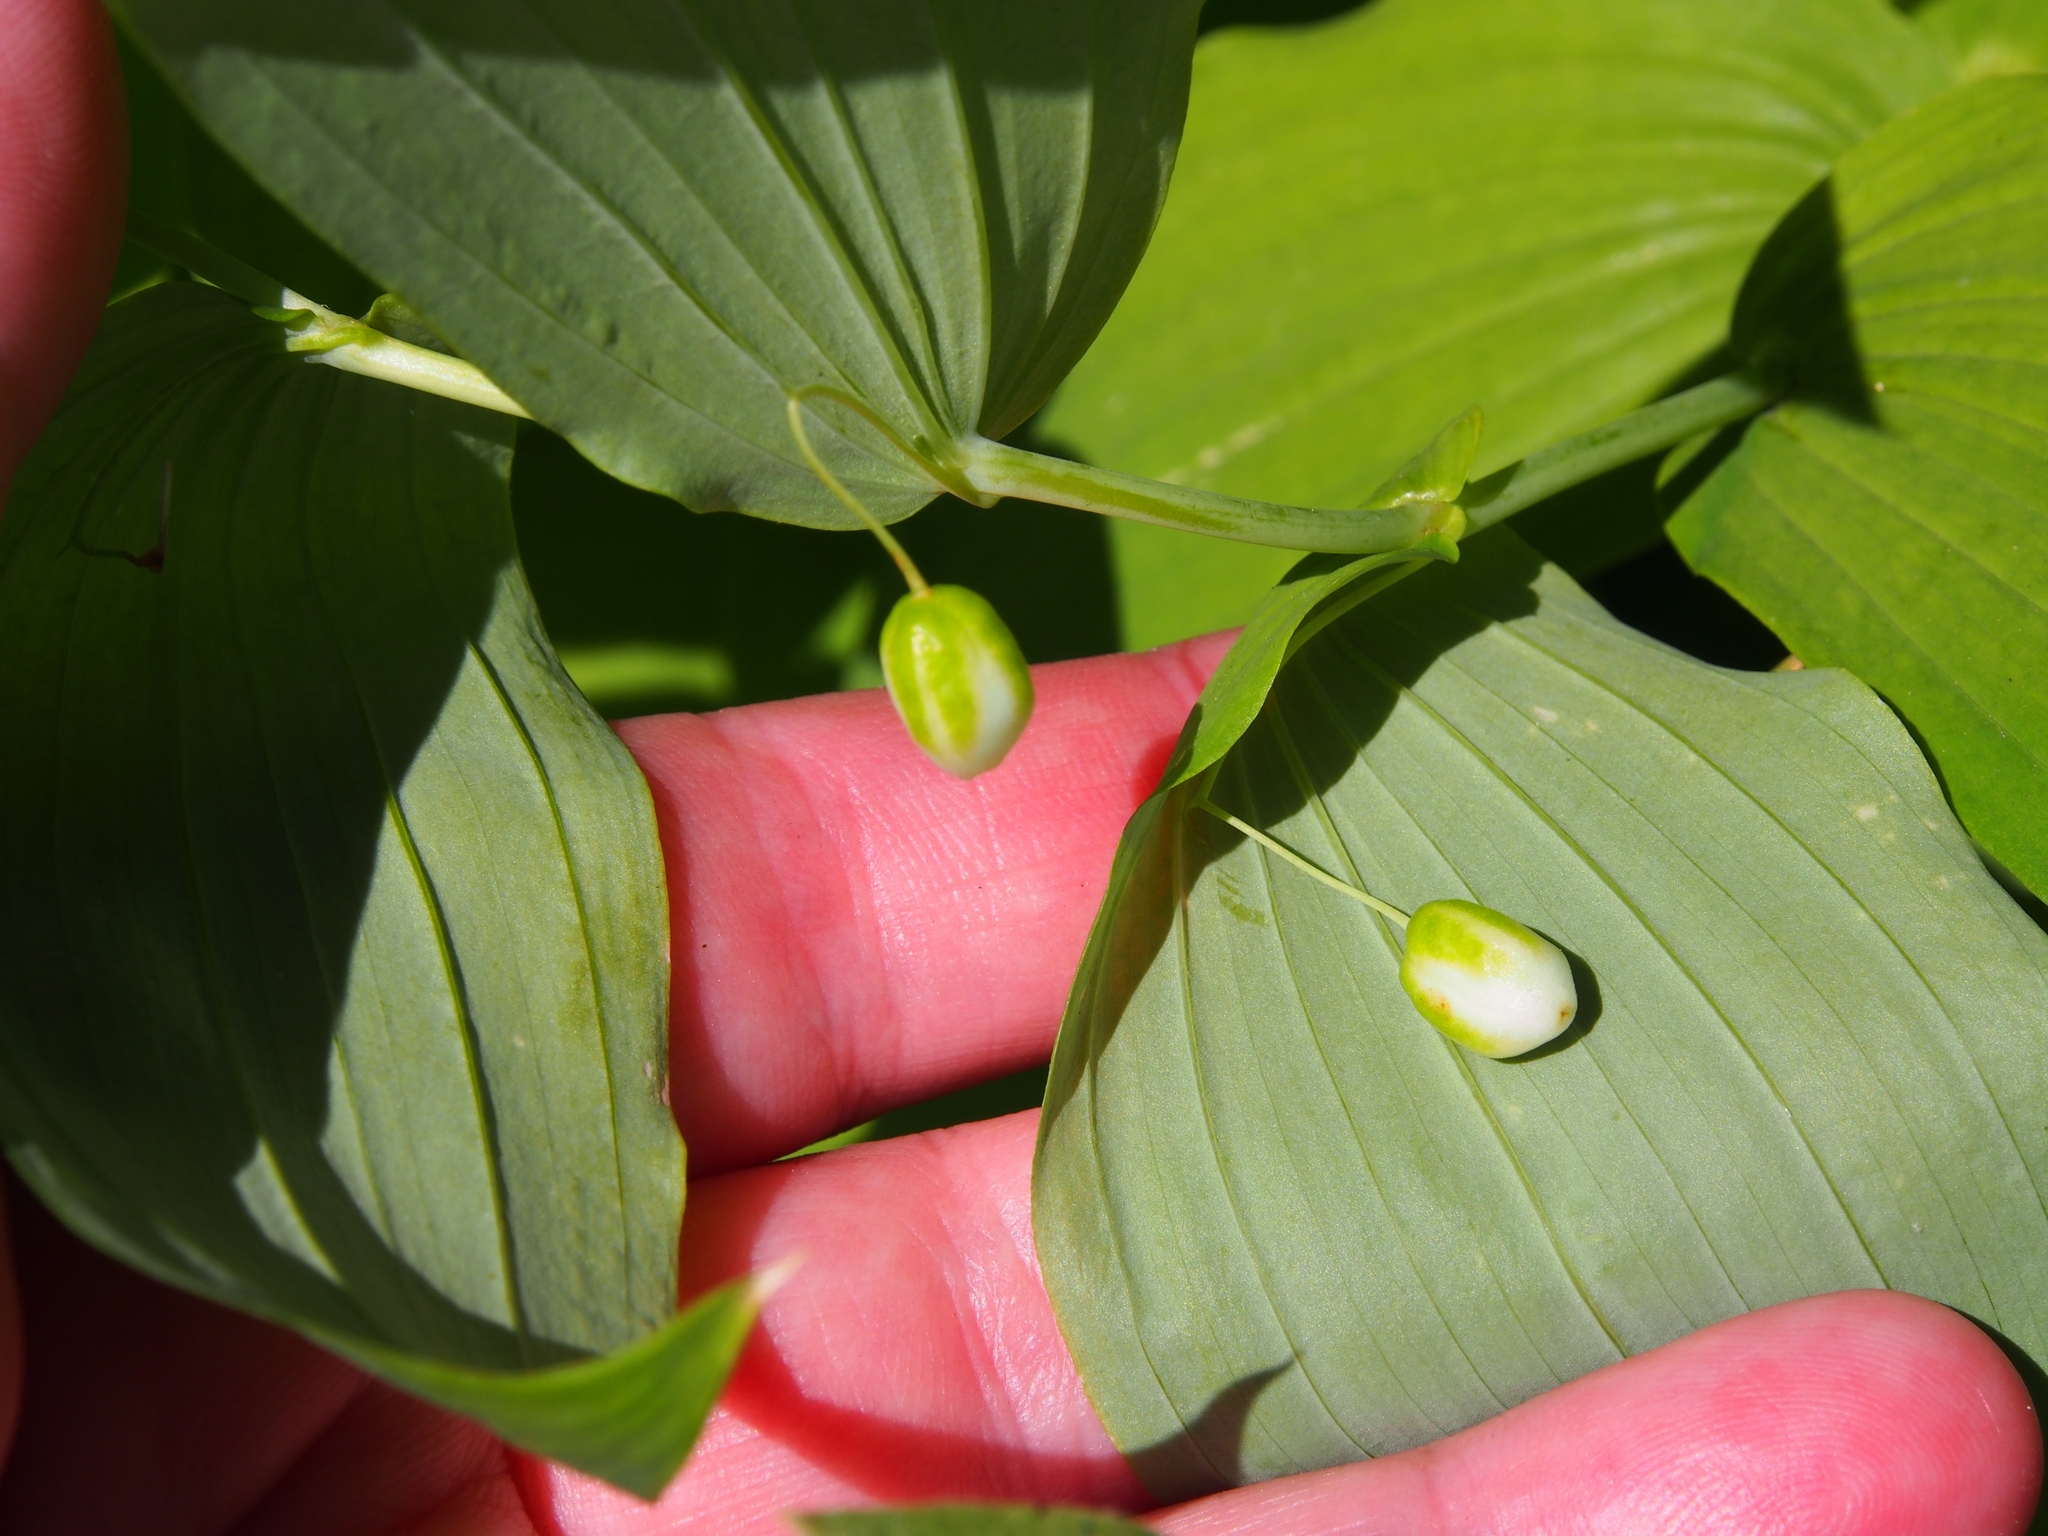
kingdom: Plantae
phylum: Tracheophyta
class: Liliopsida
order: Liliales
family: Liliaceae
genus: Streptopus
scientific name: Streptopus amplexifolius
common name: Clasp twisted stalk
